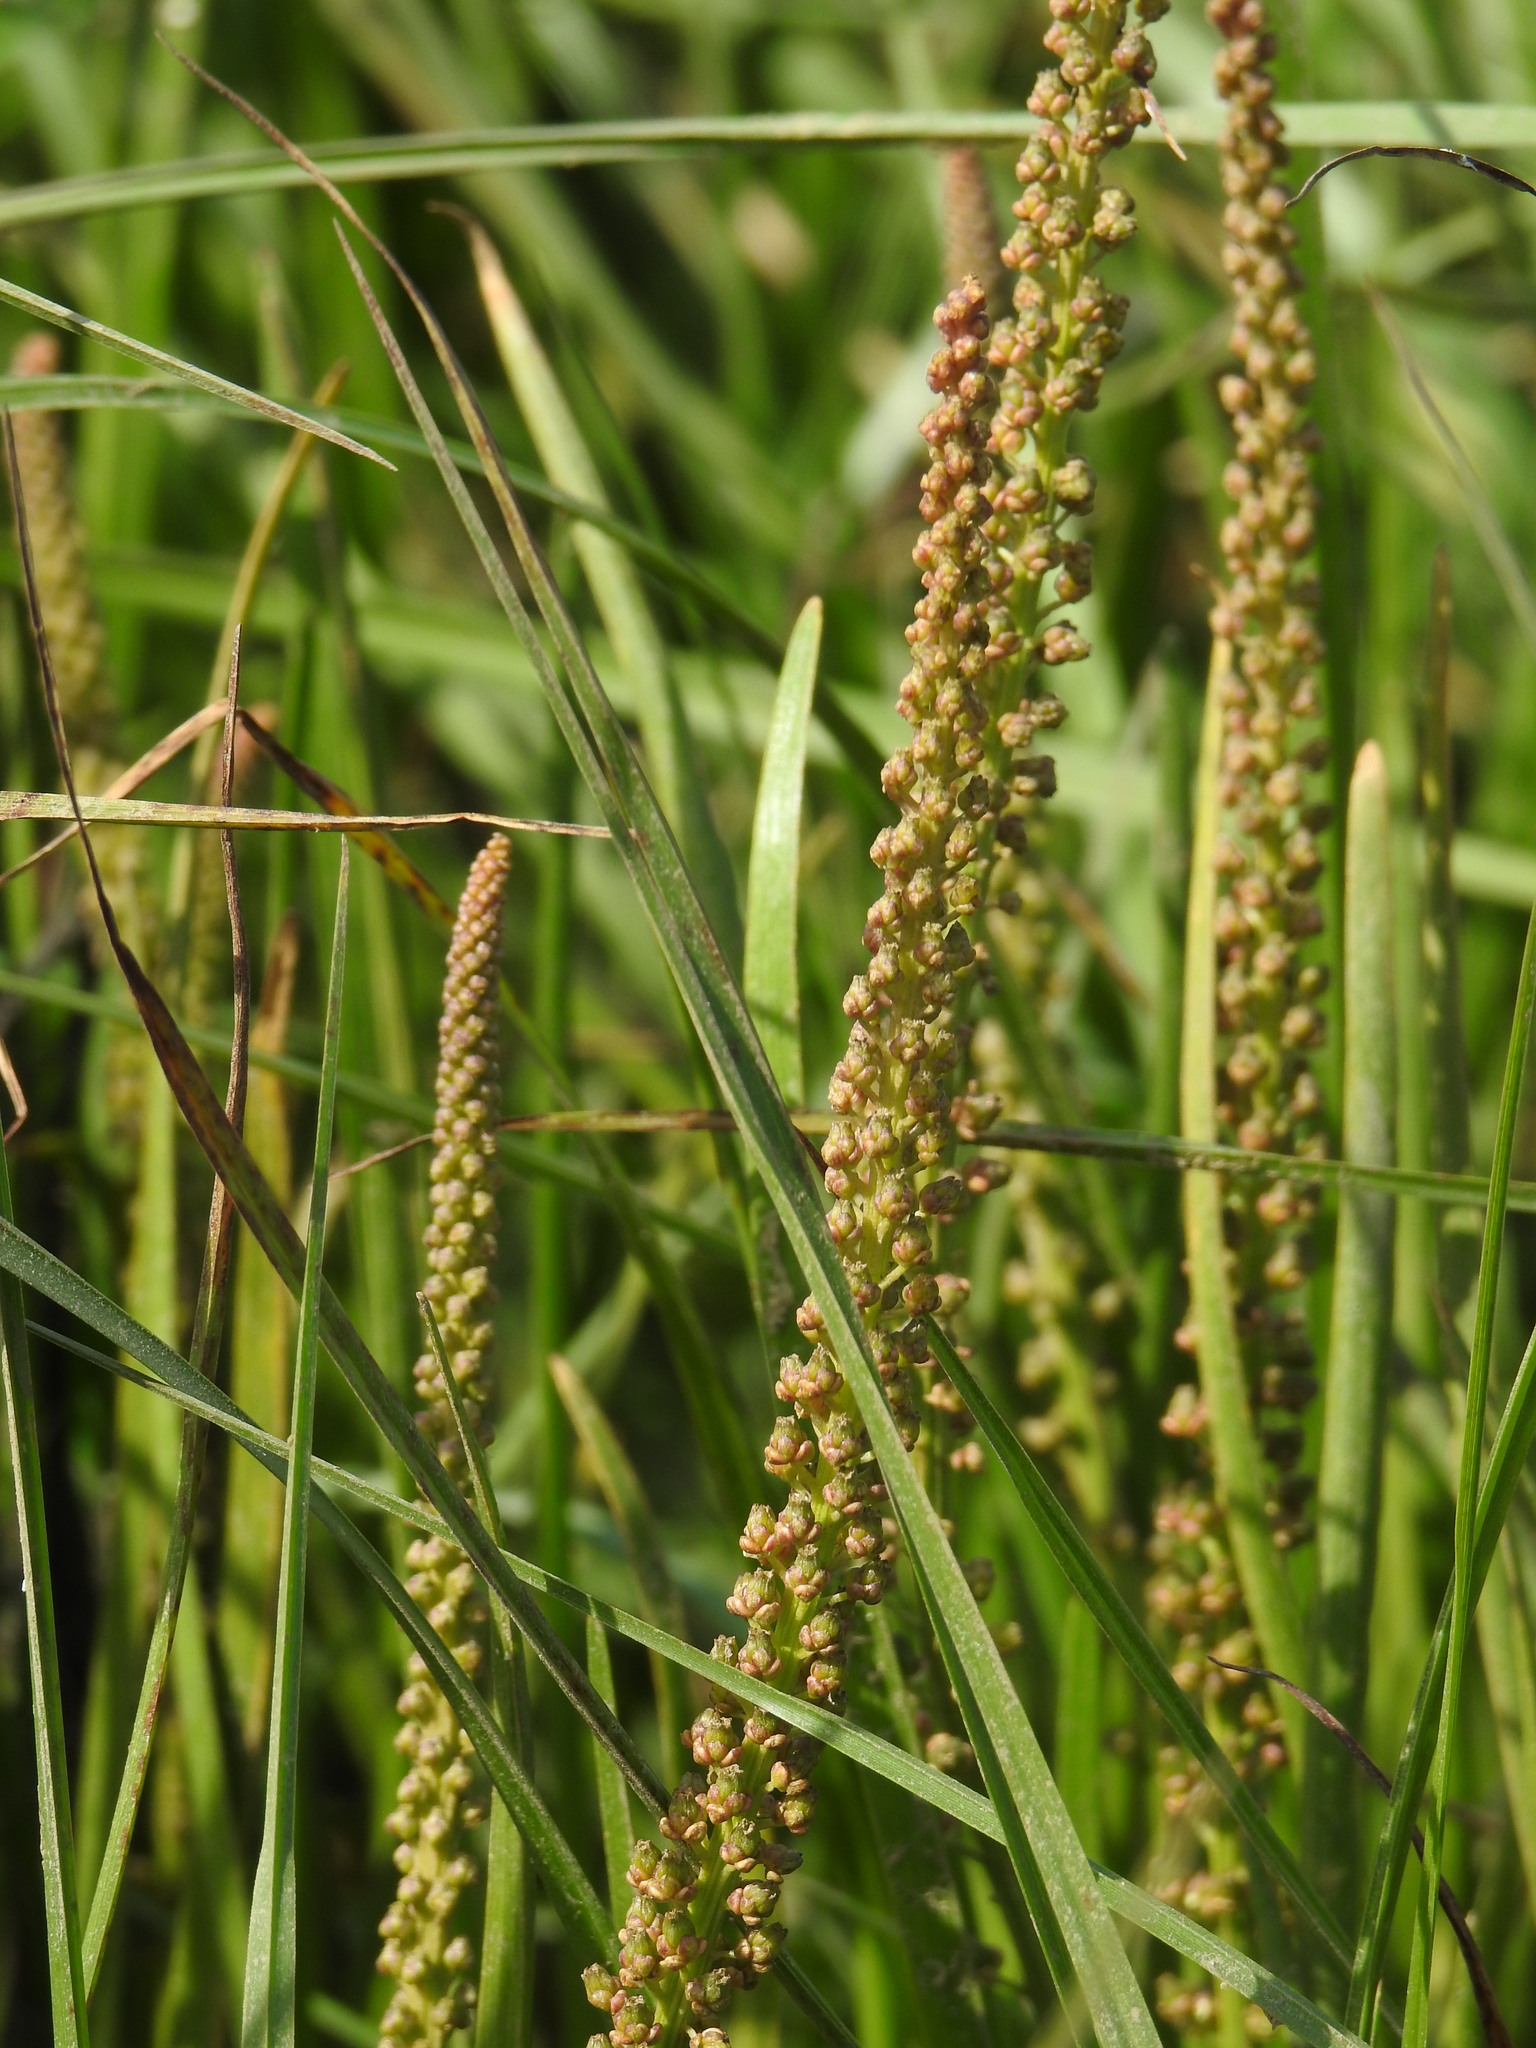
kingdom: Plantae
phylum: Tracheophyta
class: Liliopsida
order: Alismatales
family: Juncaginaceae
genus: Triglochin
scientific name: Triglochin maritima
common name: Sea arrowgrass
